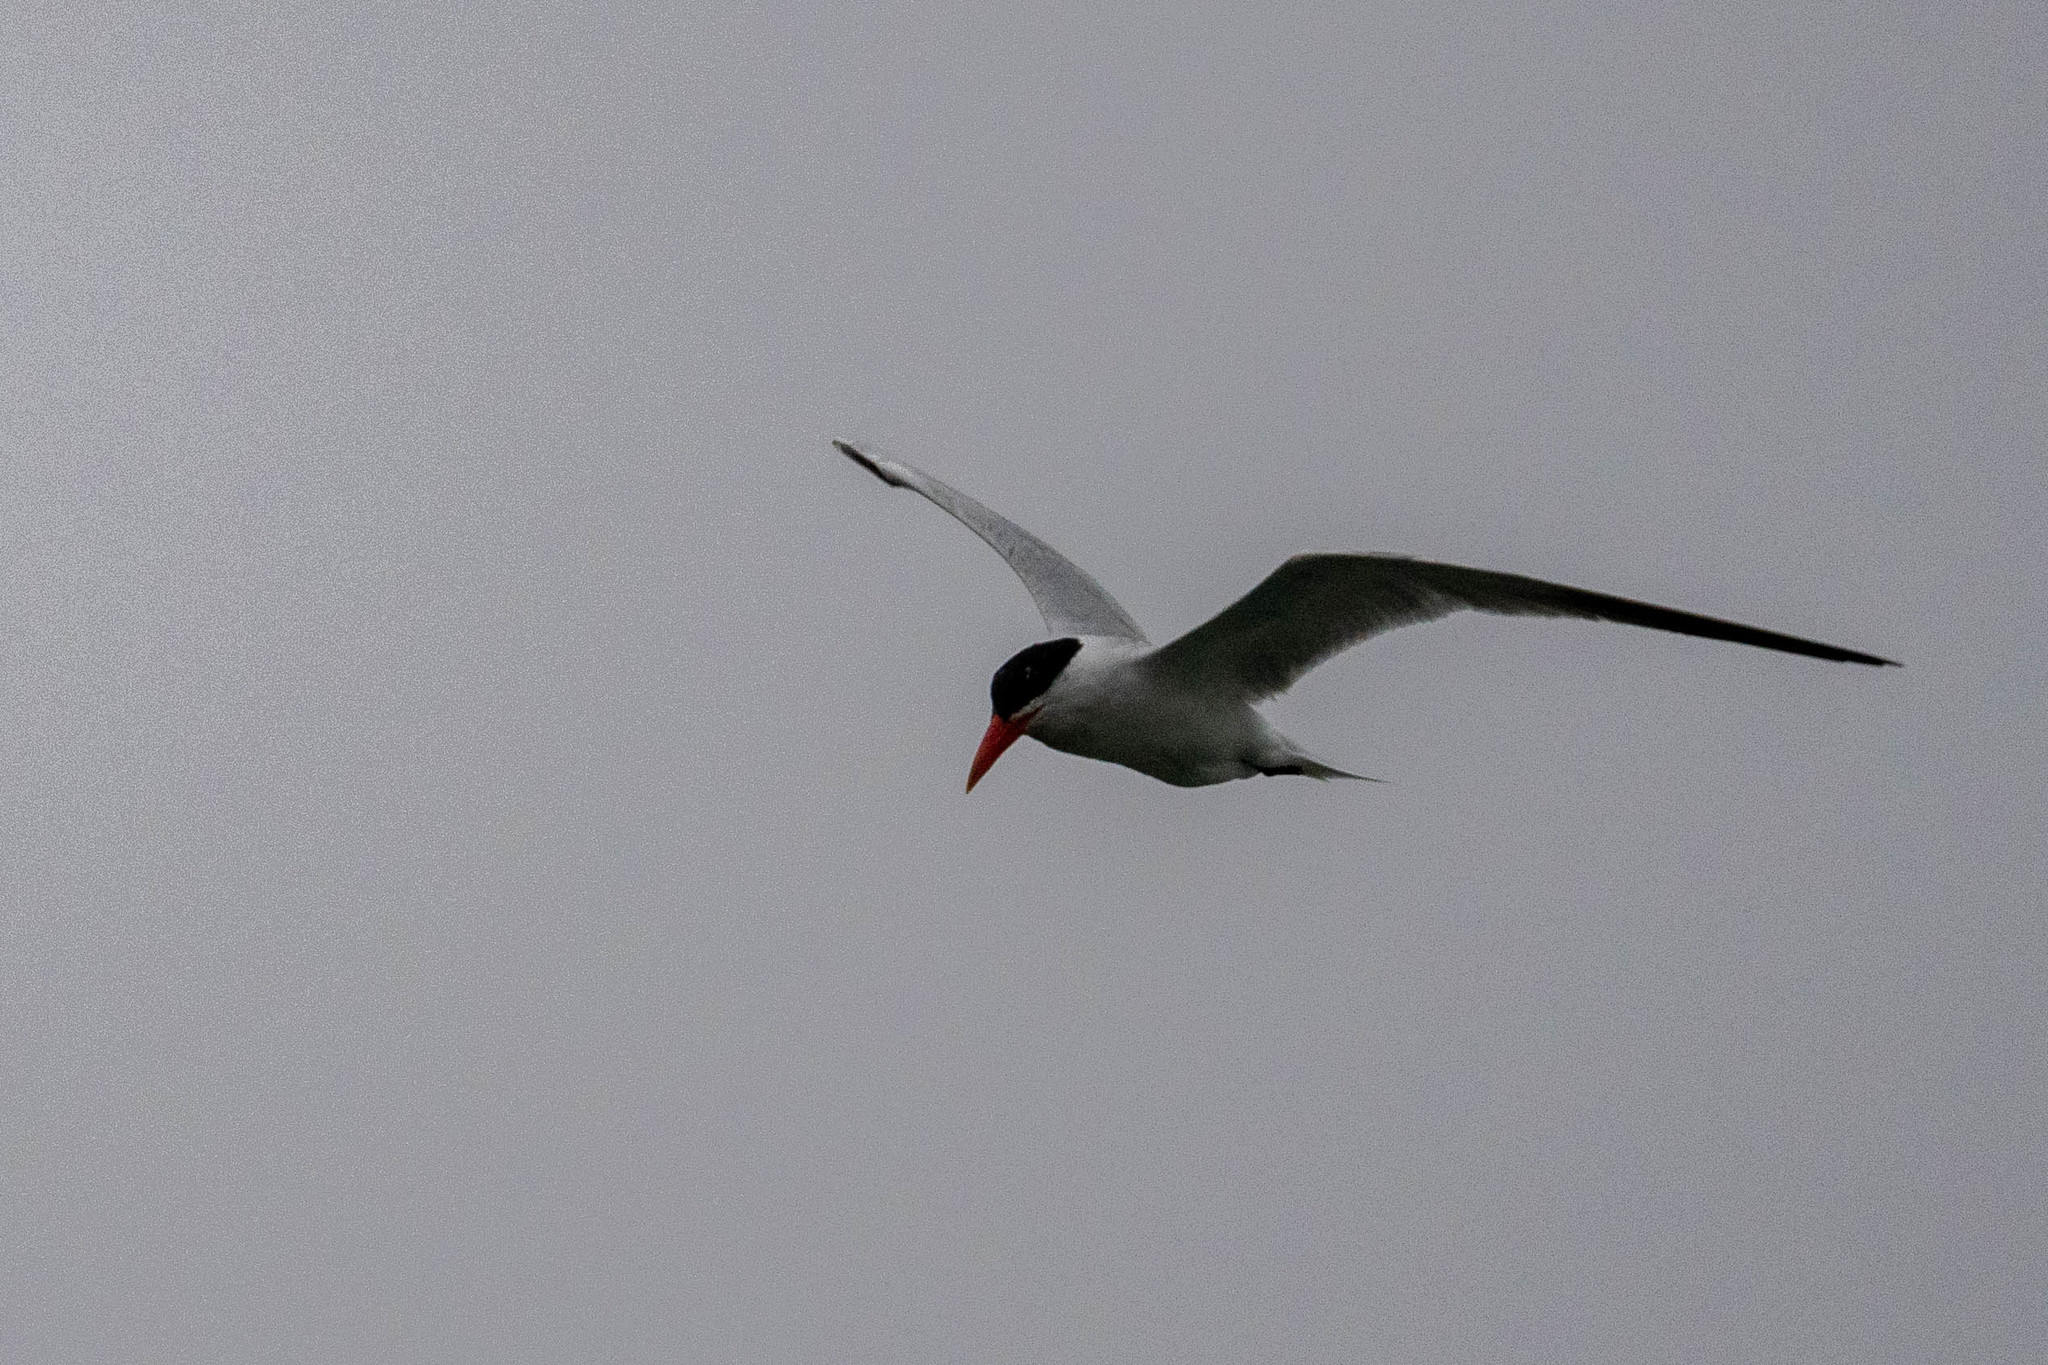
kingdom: Animalia
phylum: Chordata
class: Aves
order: Charadriiformes
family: Laridae
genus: Hydroprogne
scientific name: Hydroprogne caspia
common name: Caspian tern
